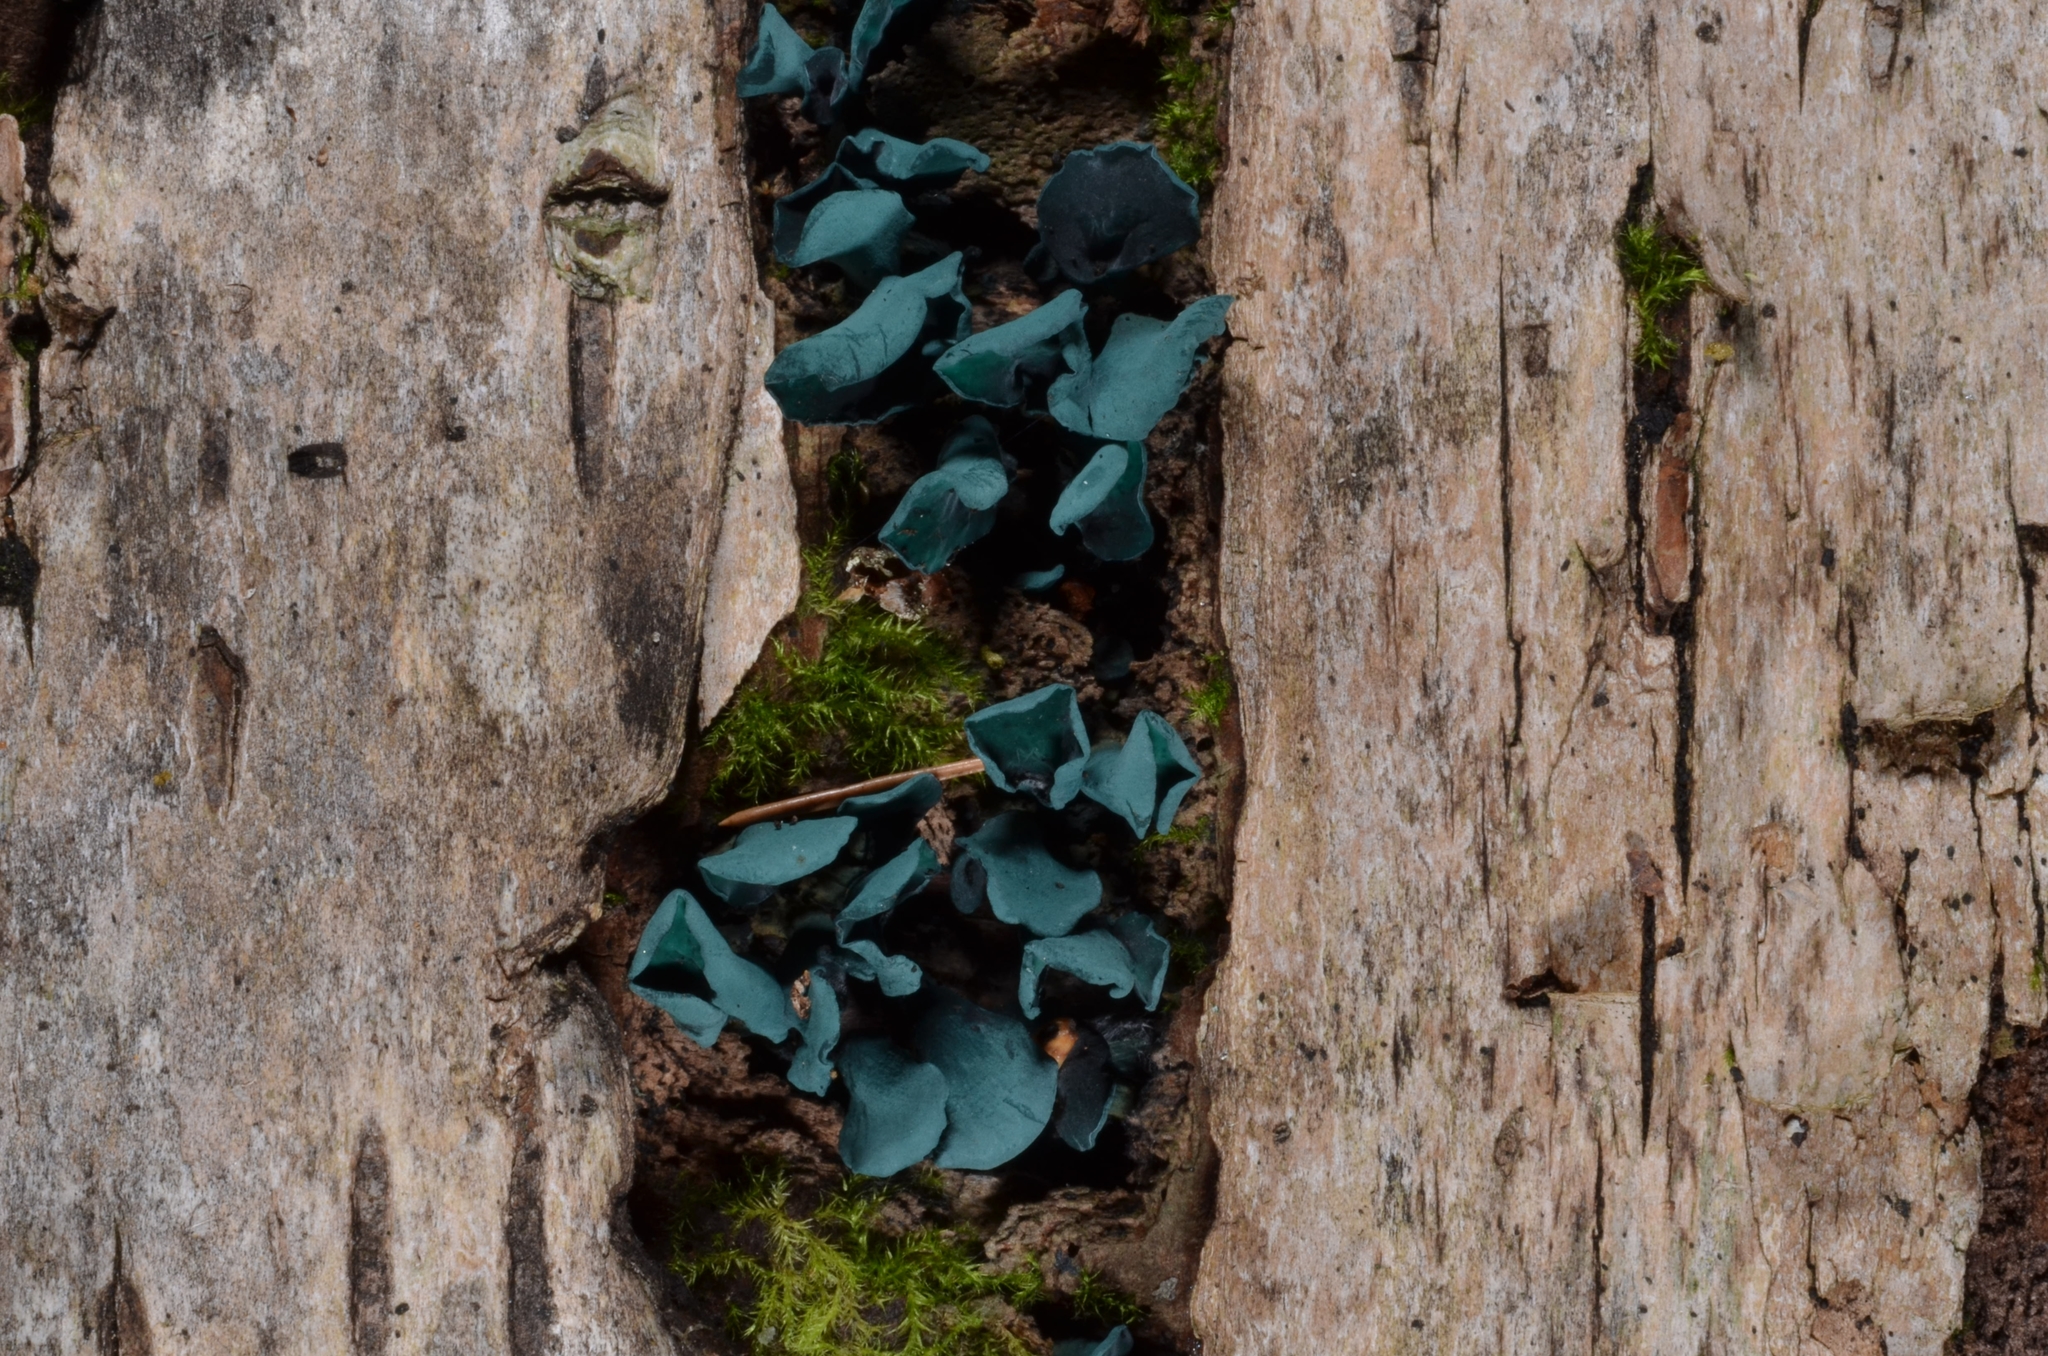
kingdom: Fungi
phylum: Ascomycota
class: Leotiomycetes
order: Helotiales
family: Chlorociboriaceae
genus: Chlorociboria
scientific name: Chlorociboria aeruginascens
